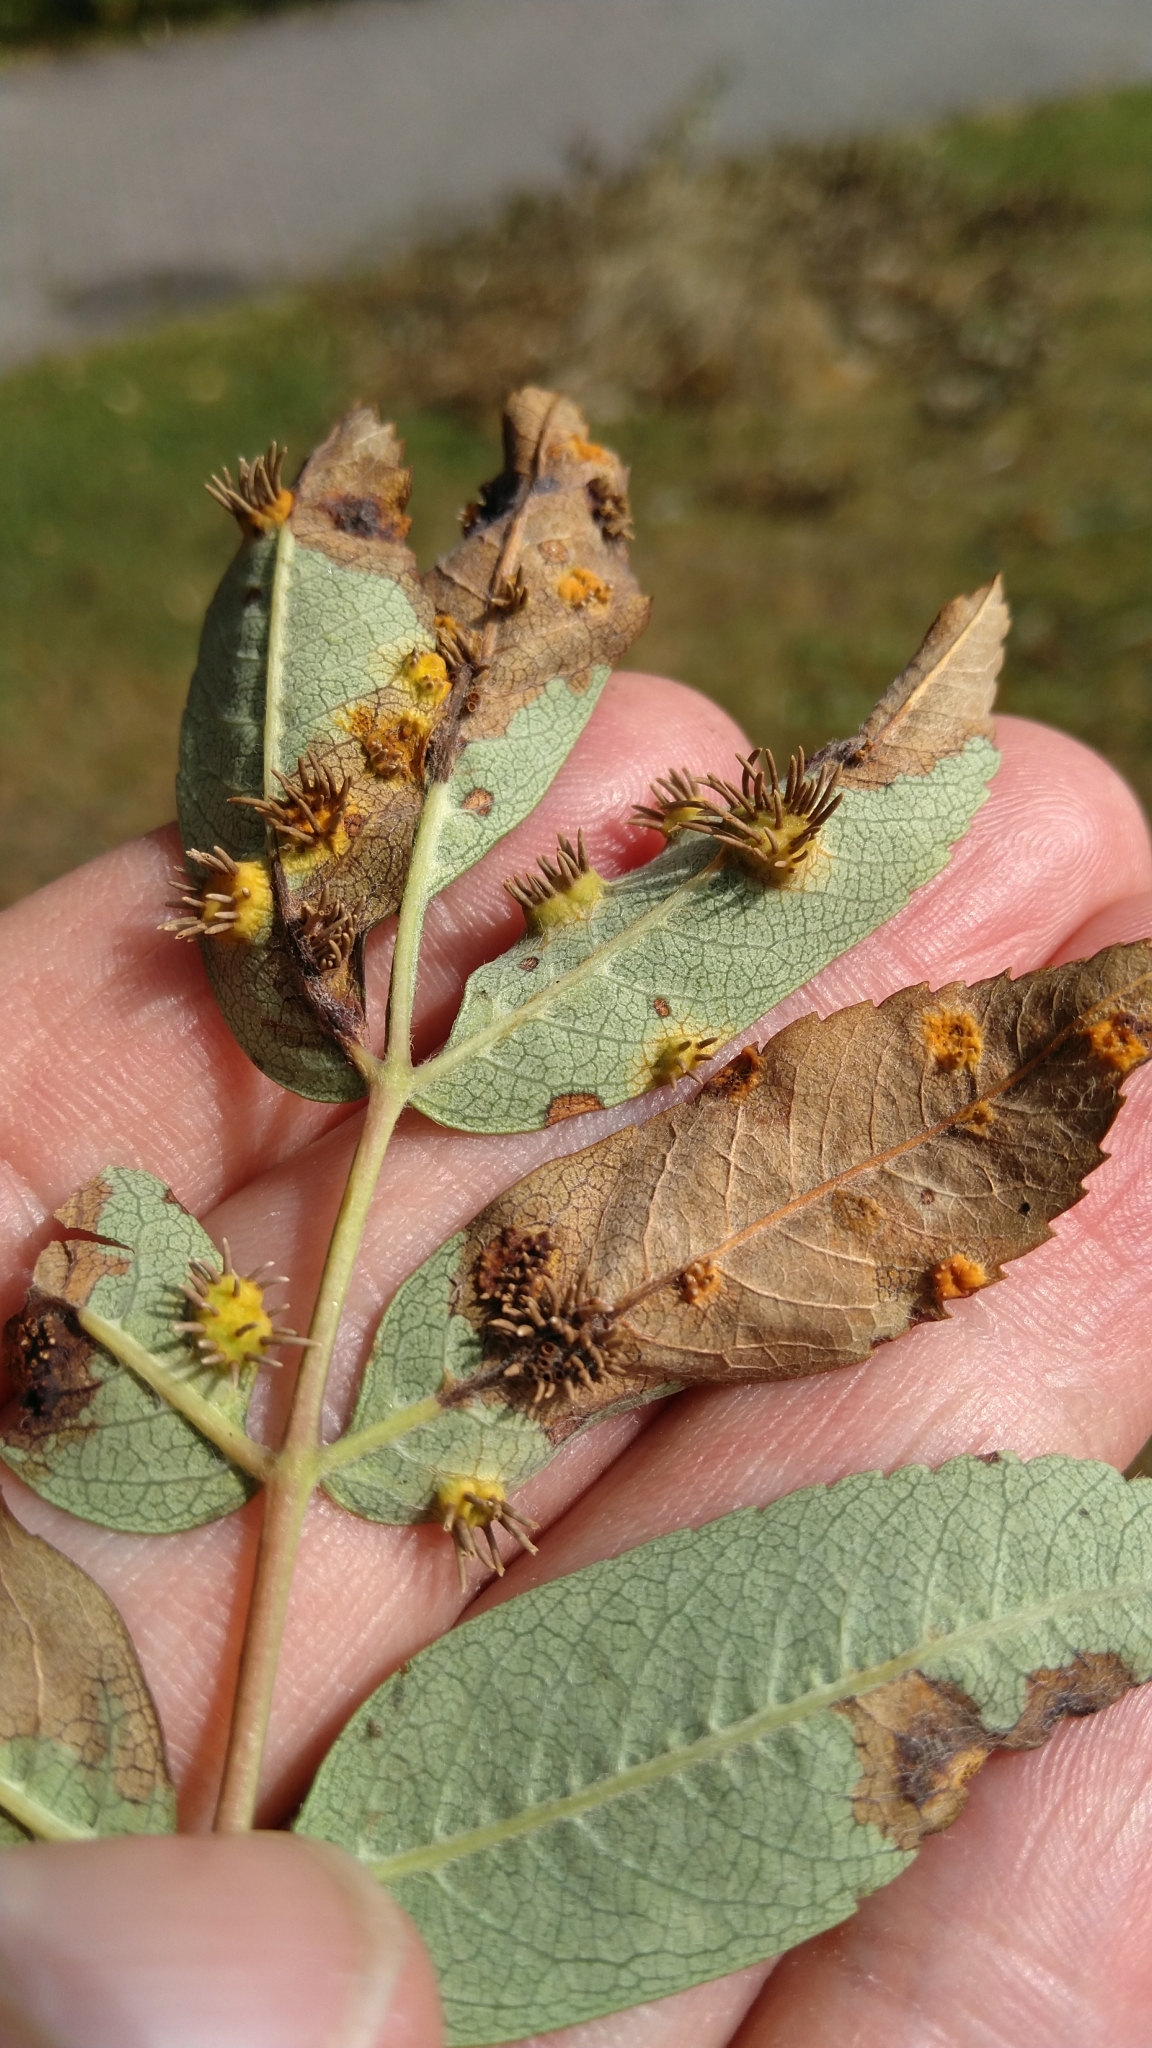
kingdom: Fungi
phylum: Basidiomycota
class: Pucciniomycetes
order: Pucciniales
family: Gymnosporangiaceae
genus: Gymnosporangium
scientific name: Gymnosporangium cornutum
